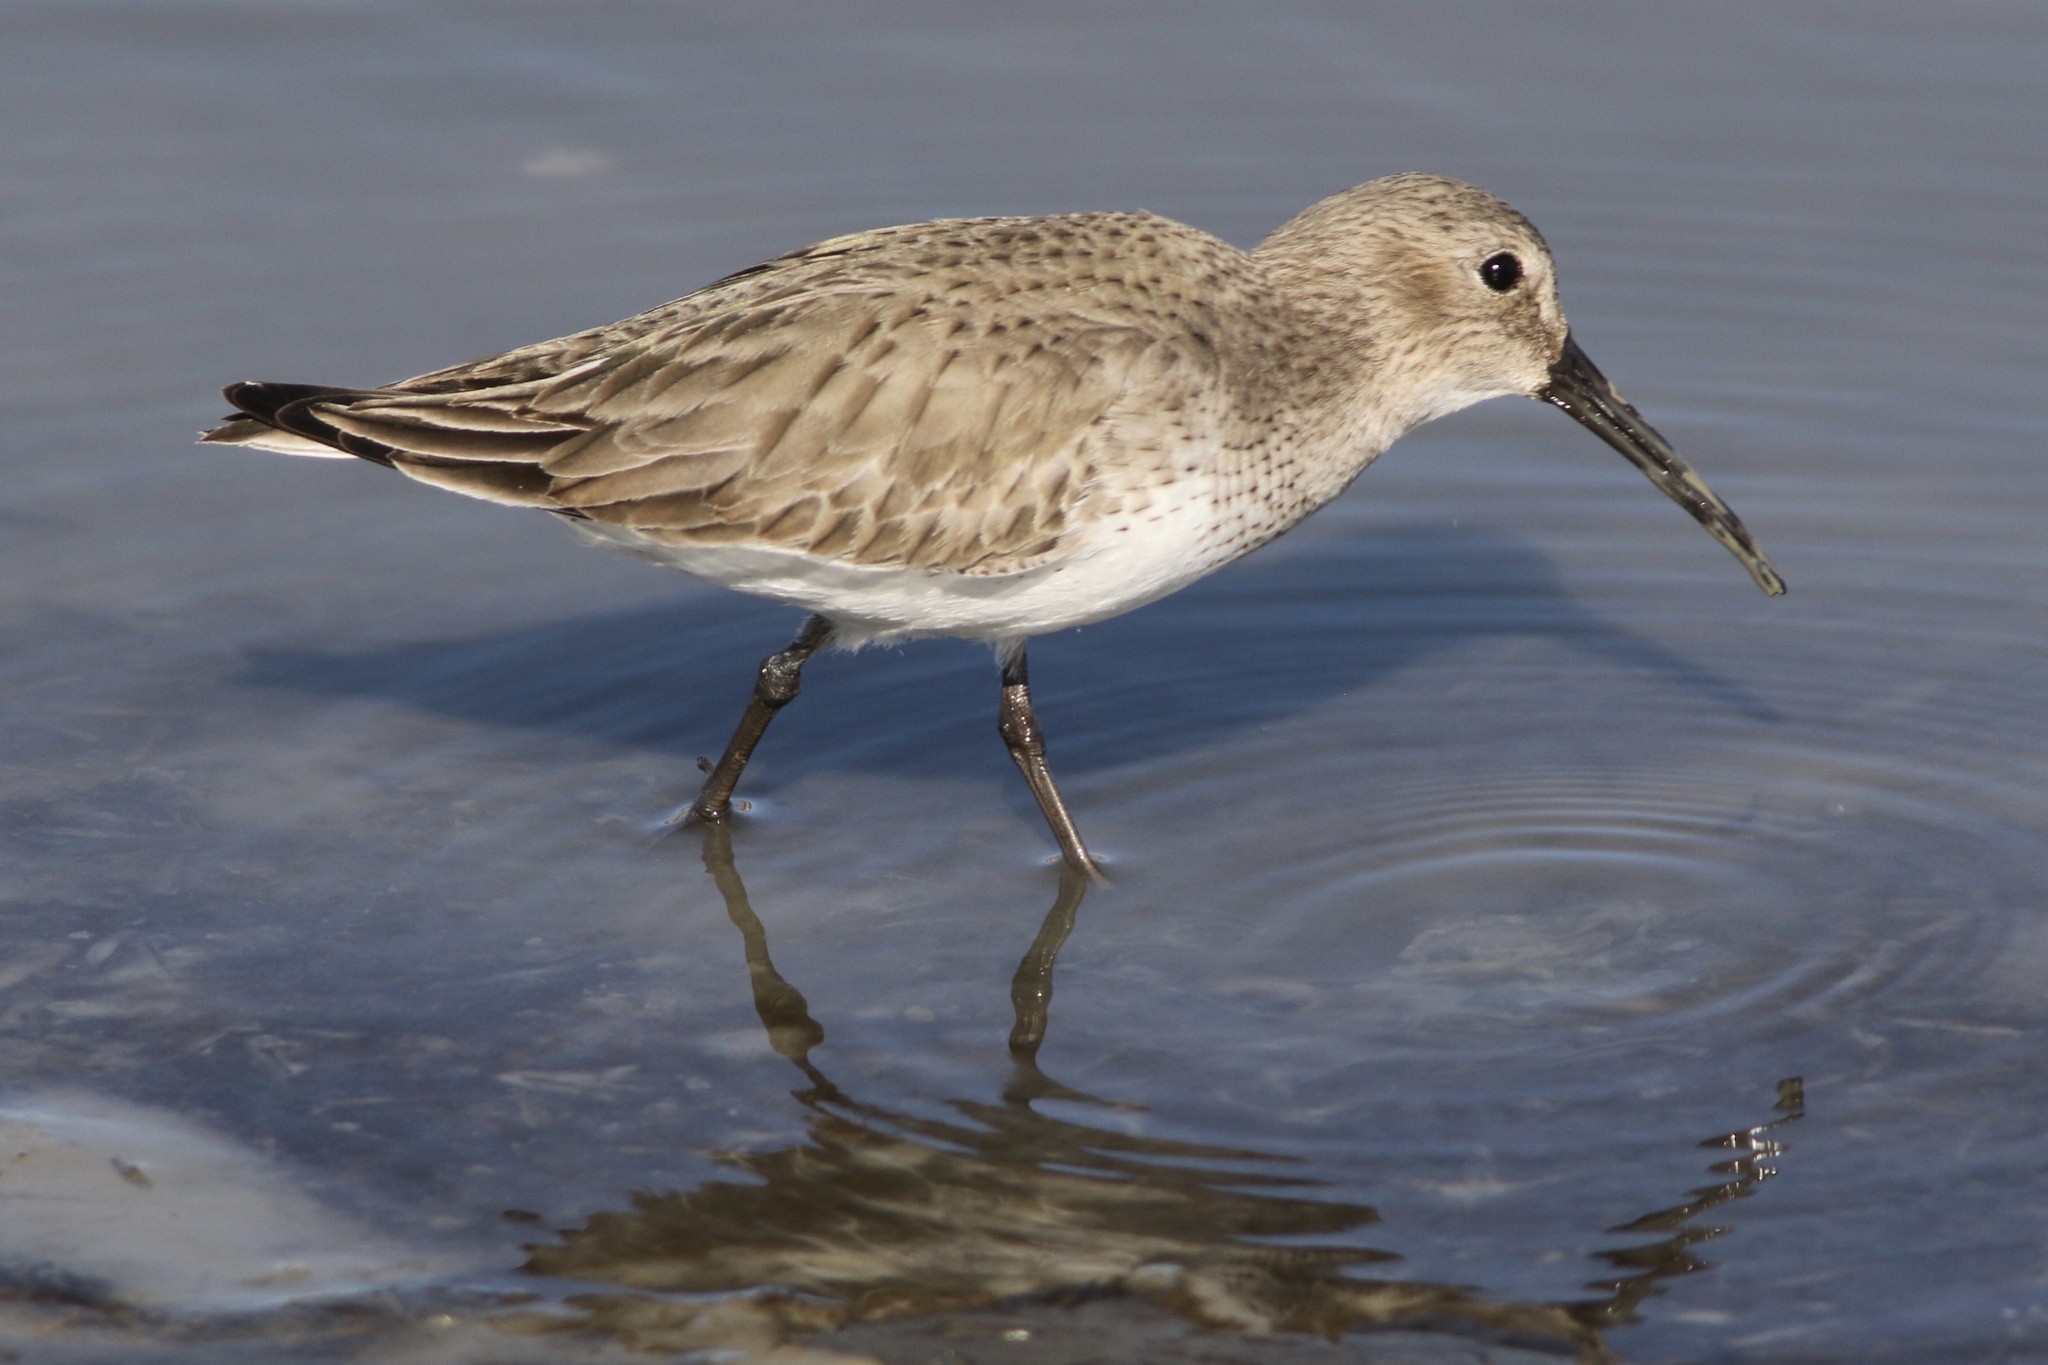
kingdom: Animalia
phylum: Chordata
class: Aves
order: Charadriiformes
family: Scolopacidae
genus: Calidris
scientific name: Calidris alpina
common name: Dunlin
